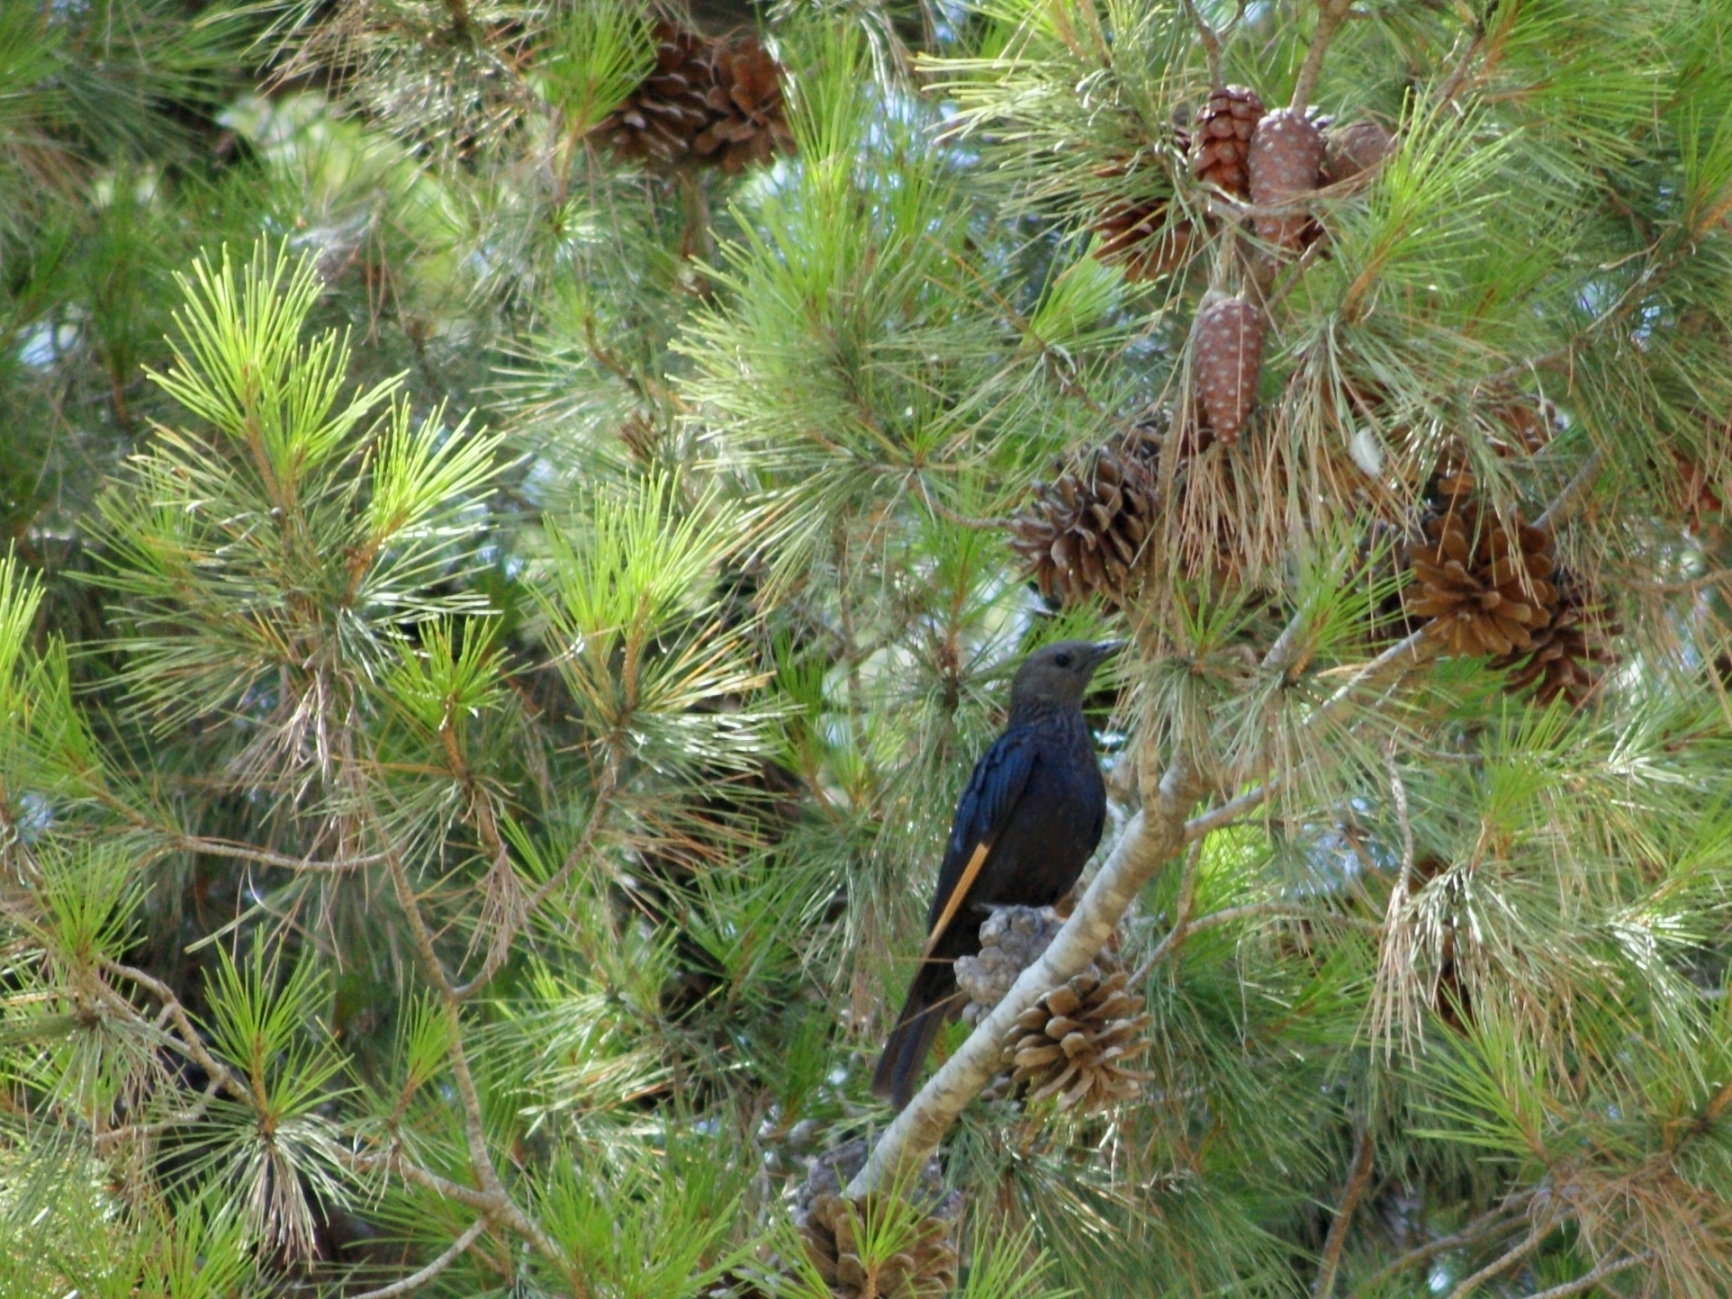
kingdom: Animalia
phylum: Chordata
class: Aves
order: Passeriformes
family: Sturnidae
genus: Onychognathus
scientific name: Onychognathus tristramii
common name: Tristram's starling
